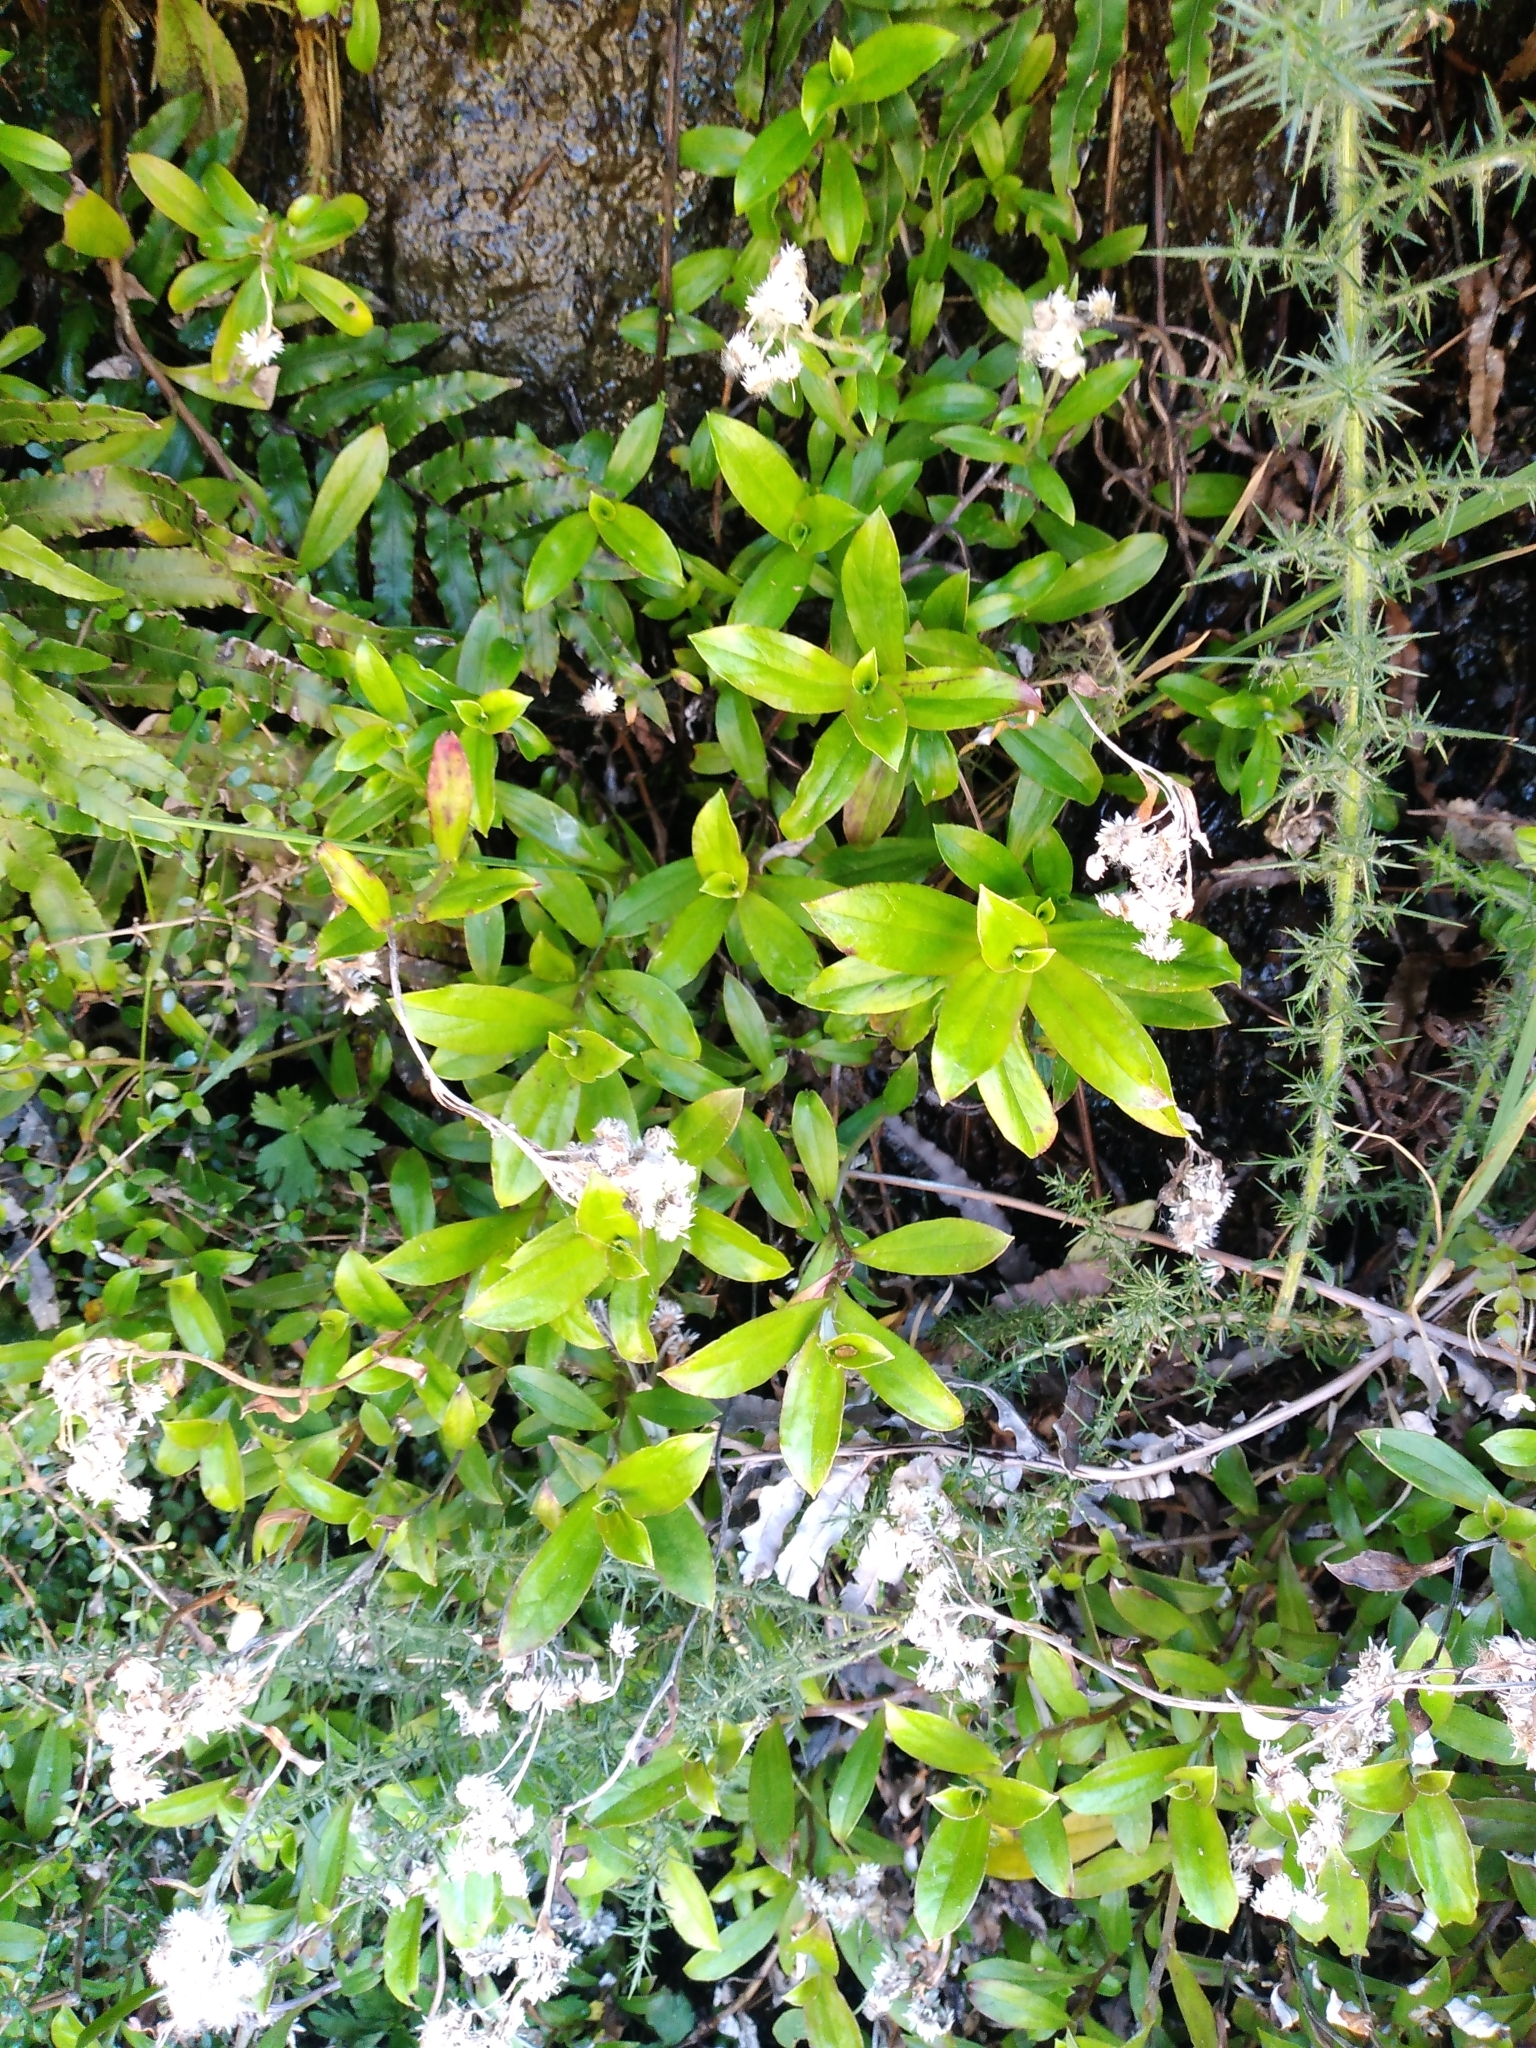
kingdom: Plantae
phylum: Tracheophyta
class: Magnoliopsida
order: Asterales
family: Asteraceae
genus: Anaphalioides
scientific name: Anaphalioides trinervis
